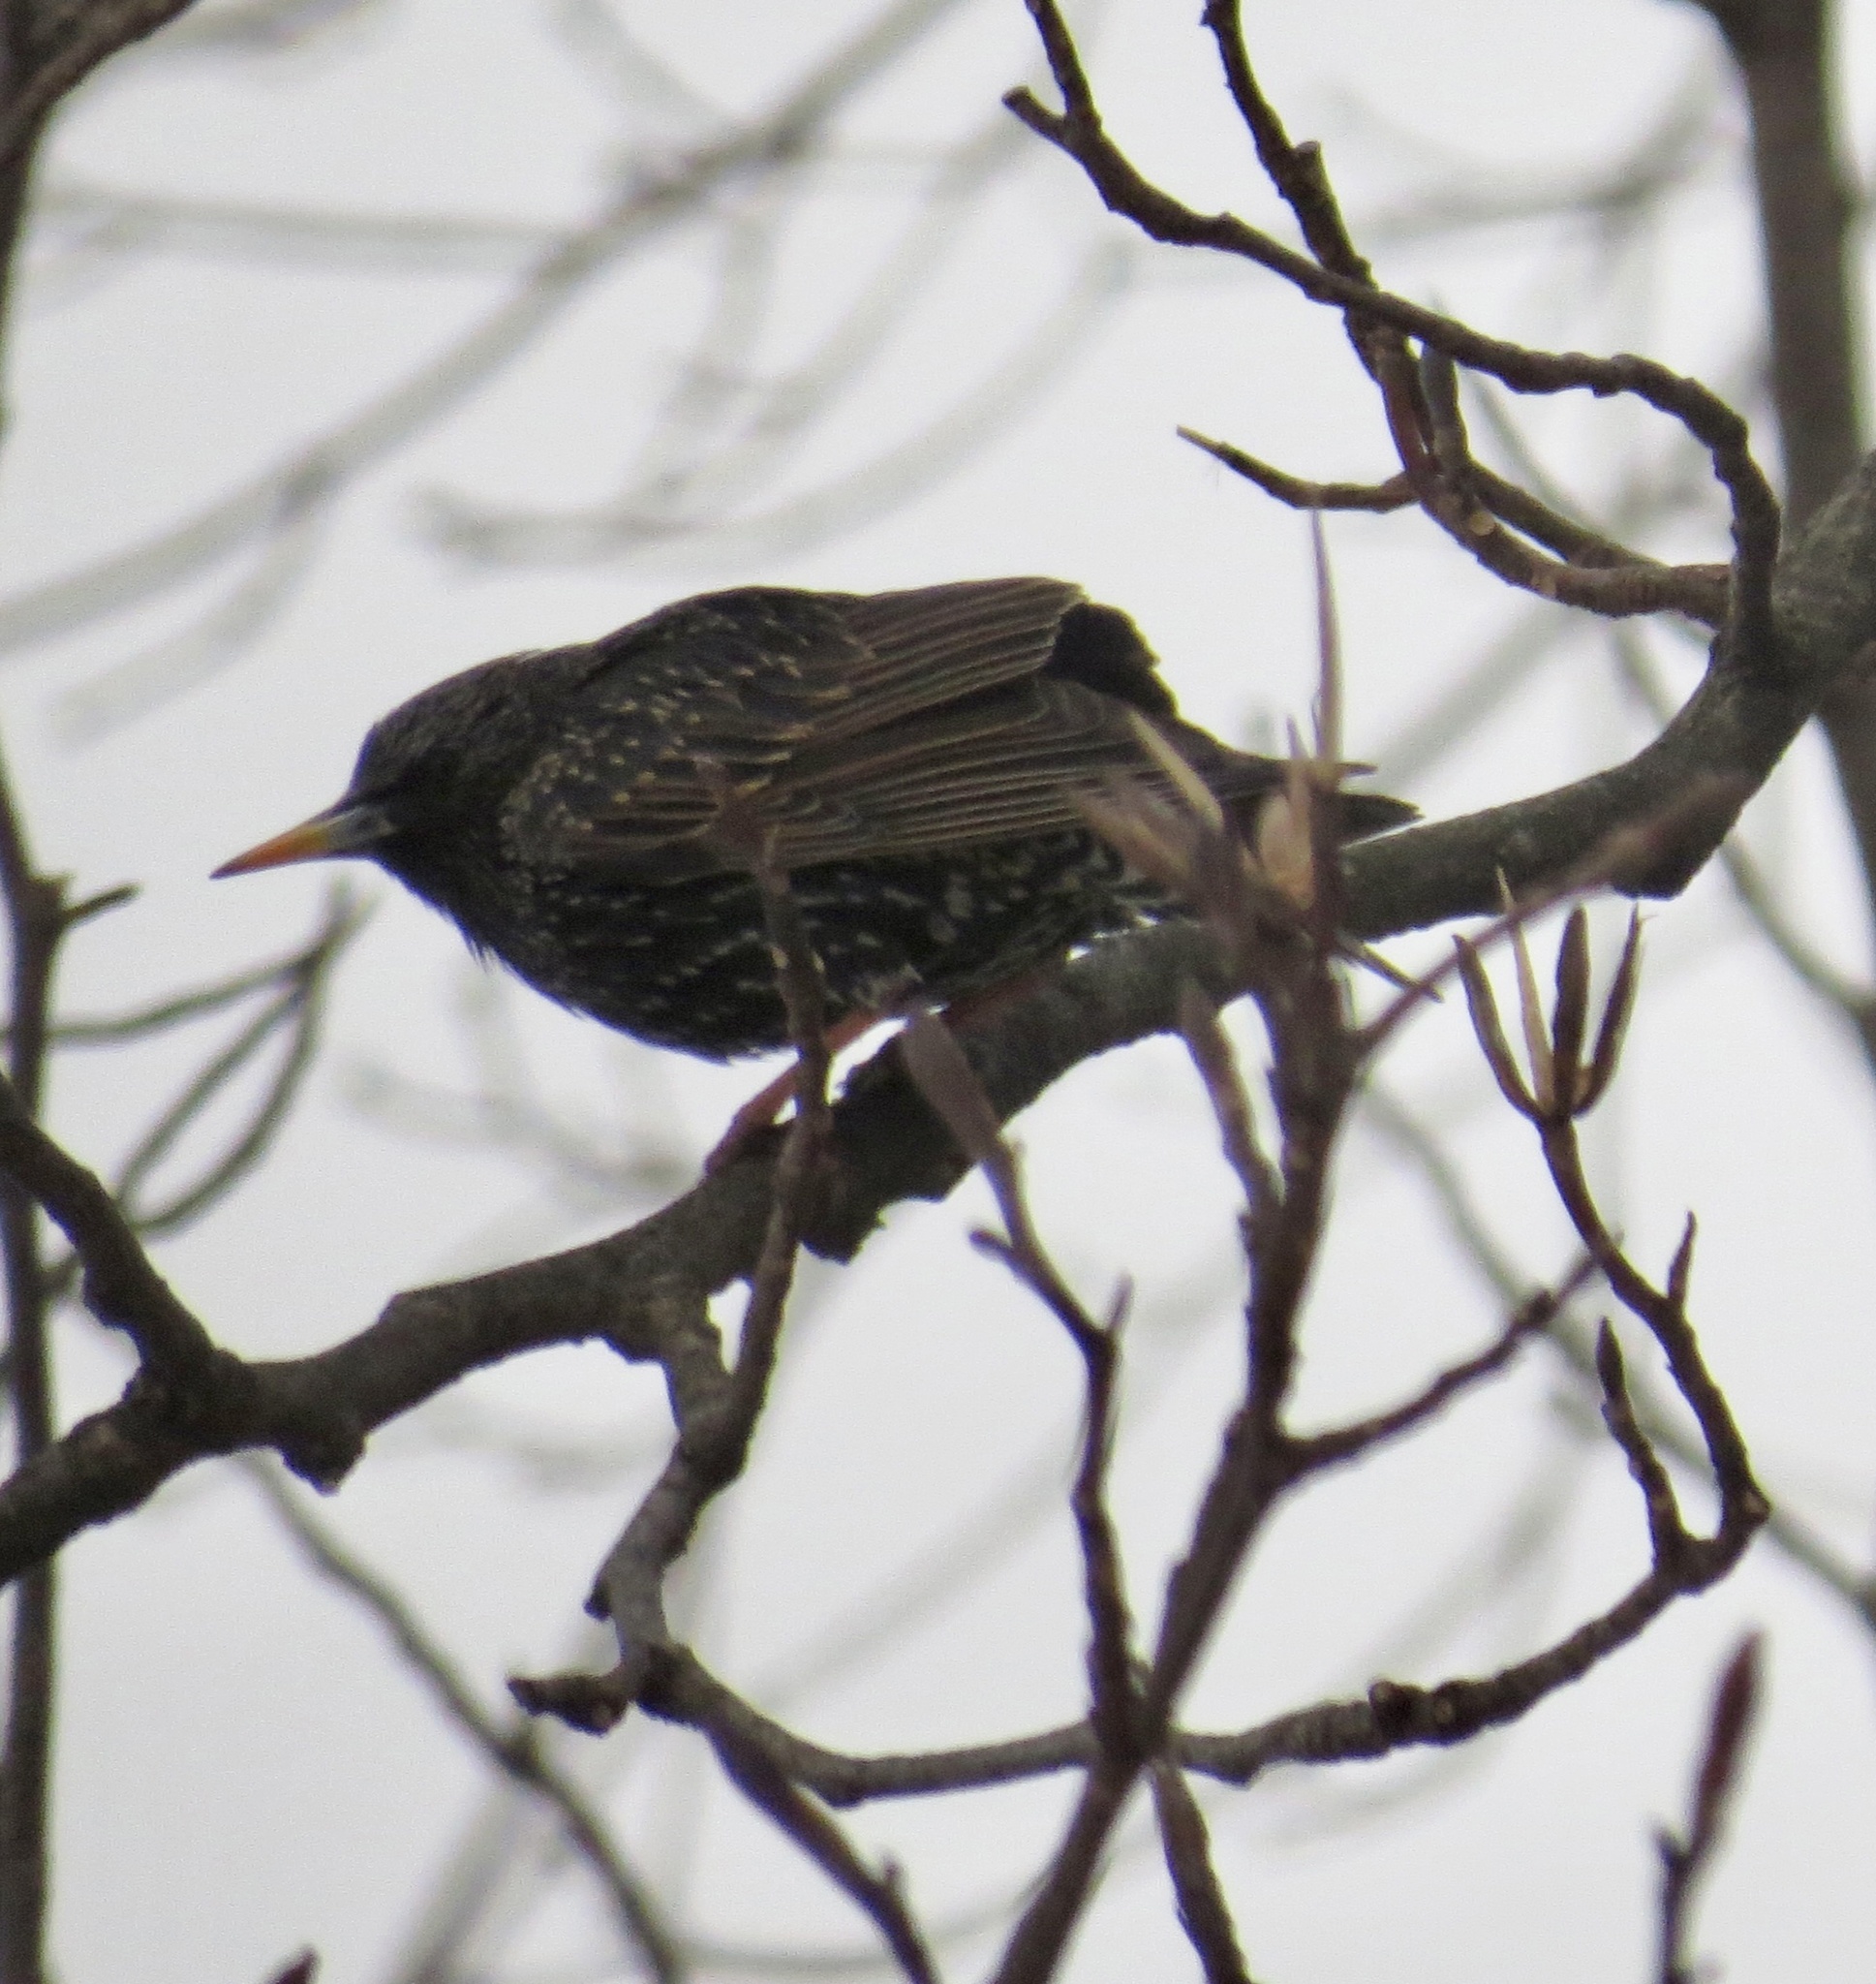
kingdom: Animalia
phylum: Chordata
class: Aves
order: Passeriformes
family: Sturnidae
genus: Sturnus
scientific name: Sturnus vulgaris
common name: Common starling
